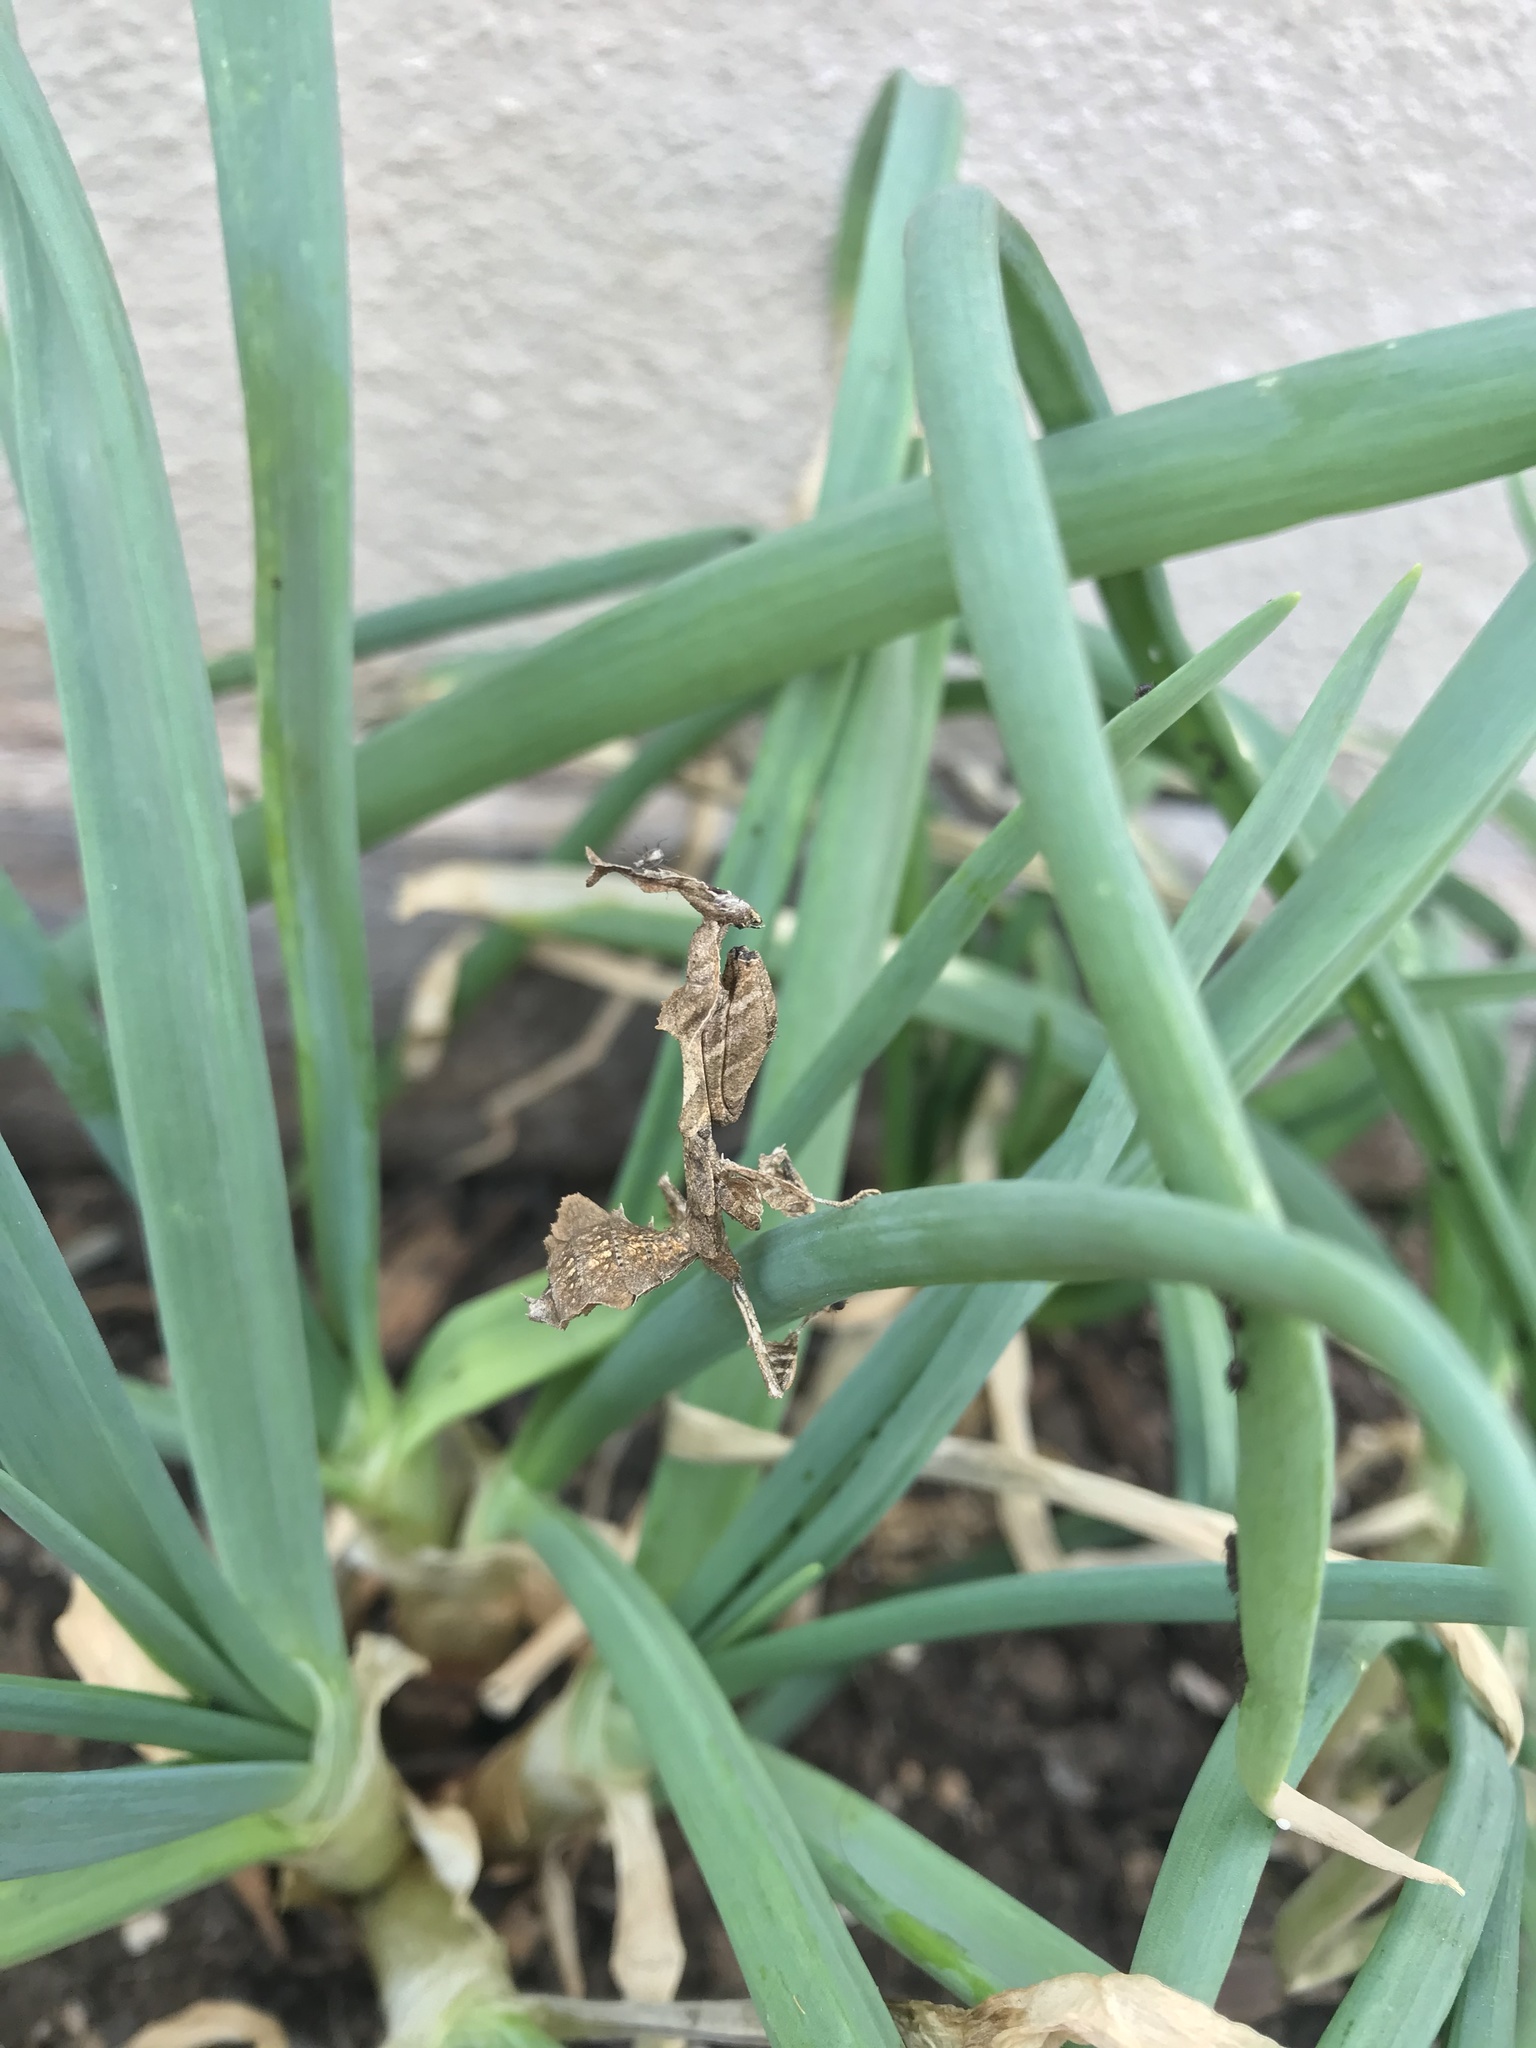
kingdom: Animalia
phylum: Arthropoda
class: Insecta
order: Mantodea
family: Hymenopodidae
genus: Phyllocrania
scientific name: Phyllocrania paradoxa
